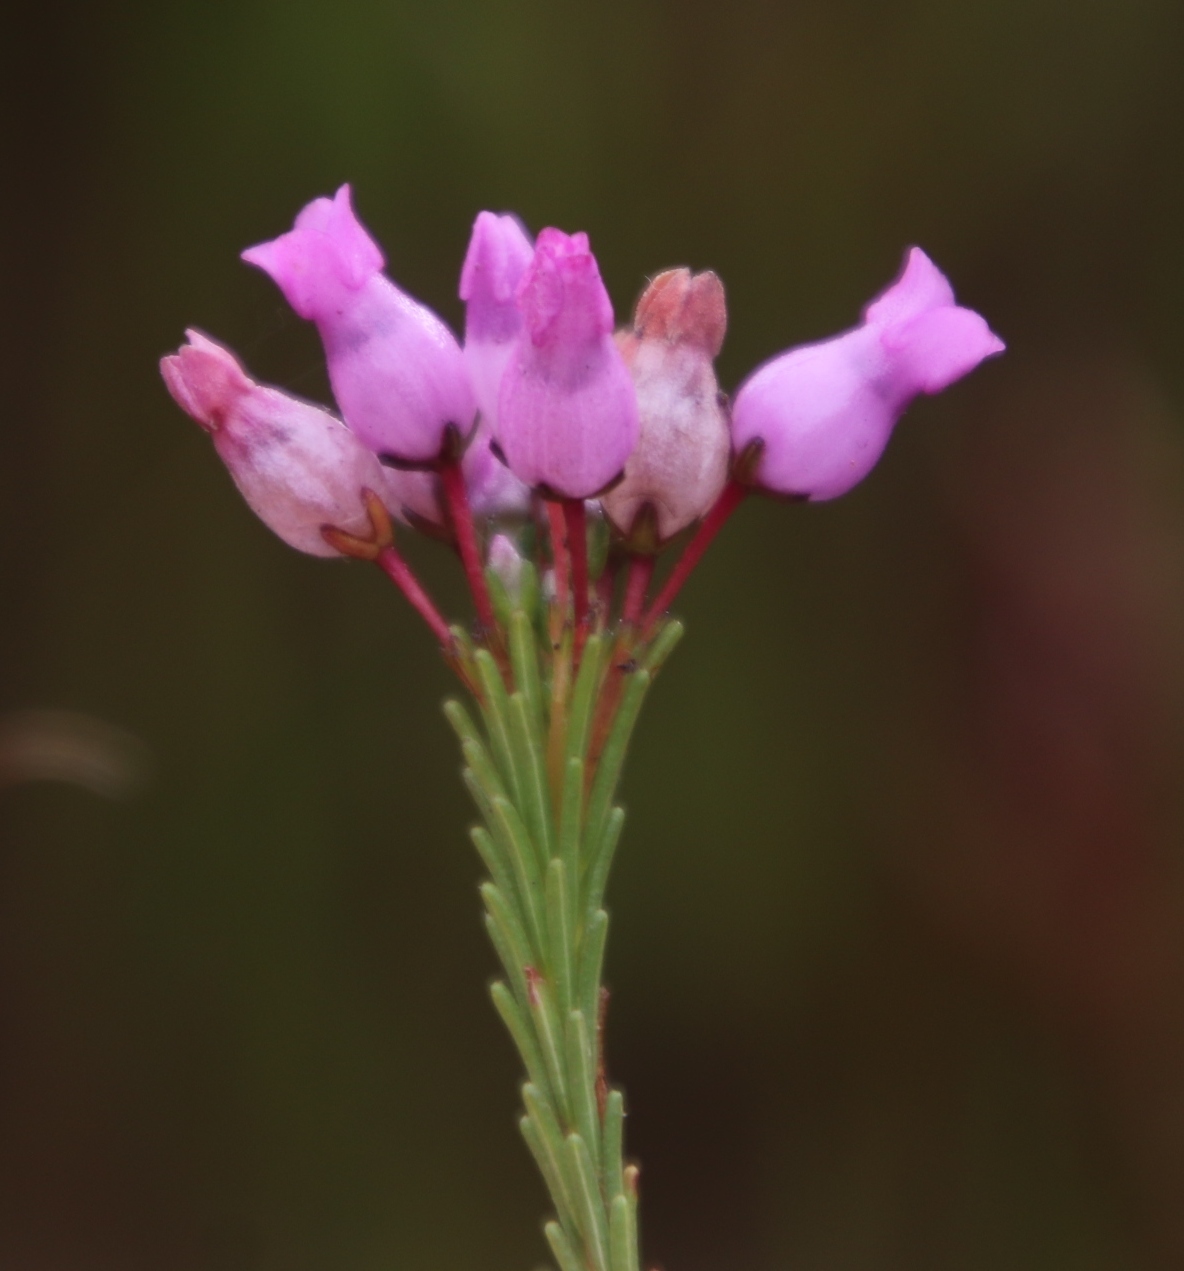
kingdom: Plantae
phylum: Tracheophyta
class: Magnoliopsida
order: Ericales
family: Ericaceae
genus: Erica
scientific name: Erica obliqua
